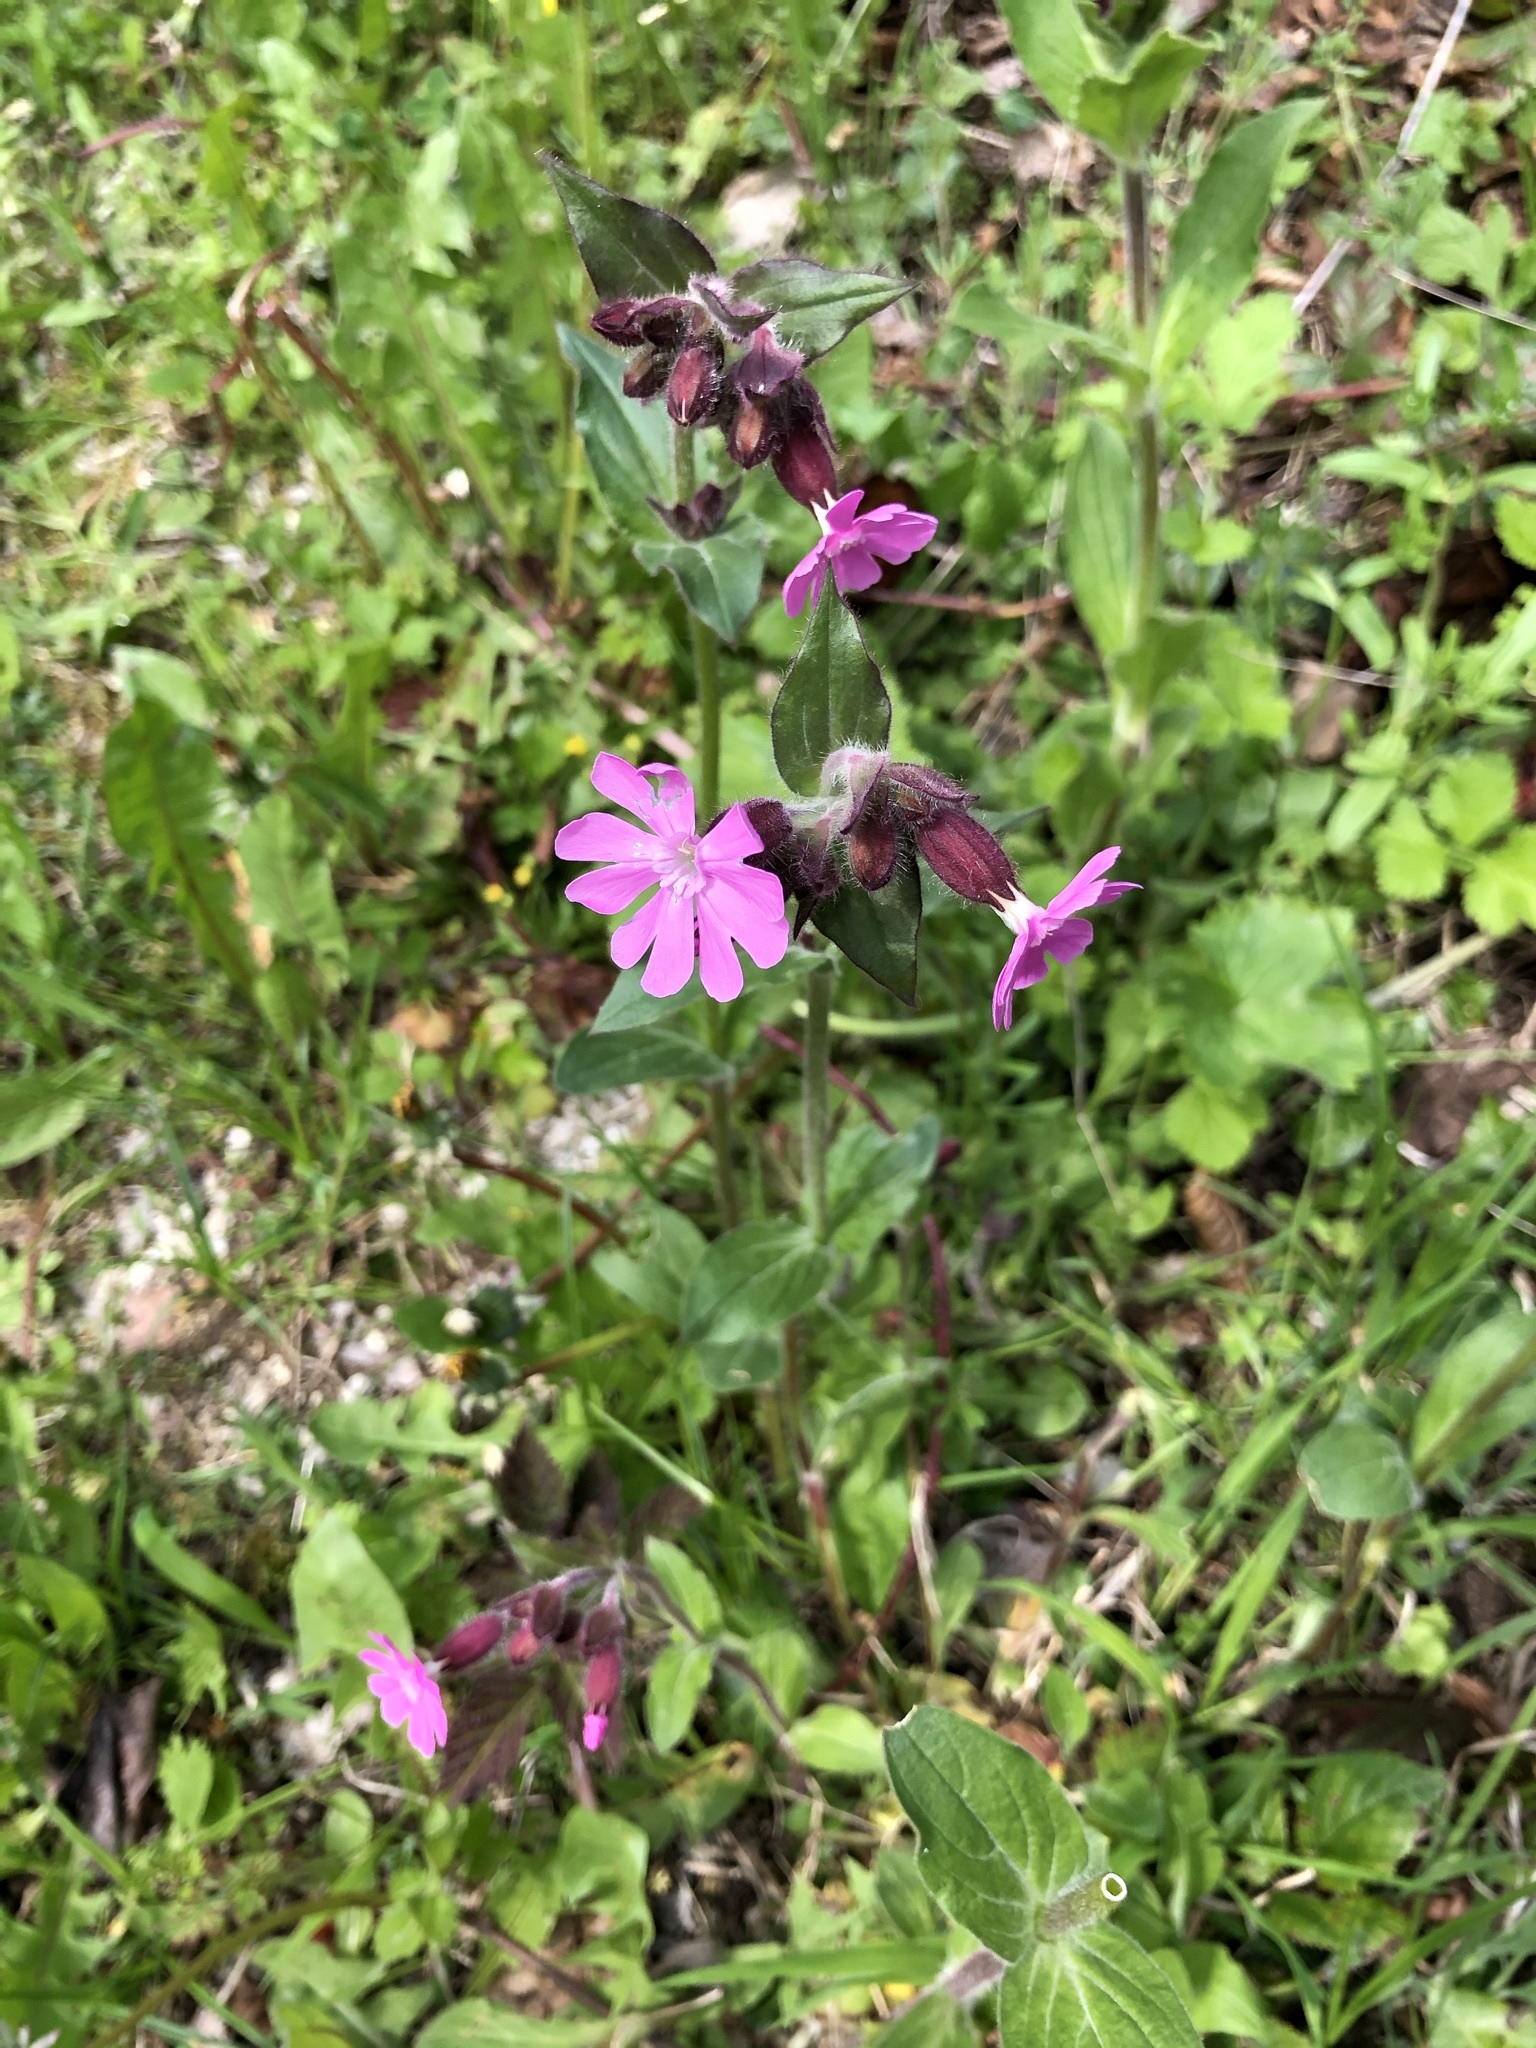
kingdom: Plantae
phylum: Tracheophyta
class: Magnoliopsida
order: Caryophyllales
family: Caryophyllaceae
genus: Silene
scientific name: Silene dioica
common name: Red campion
